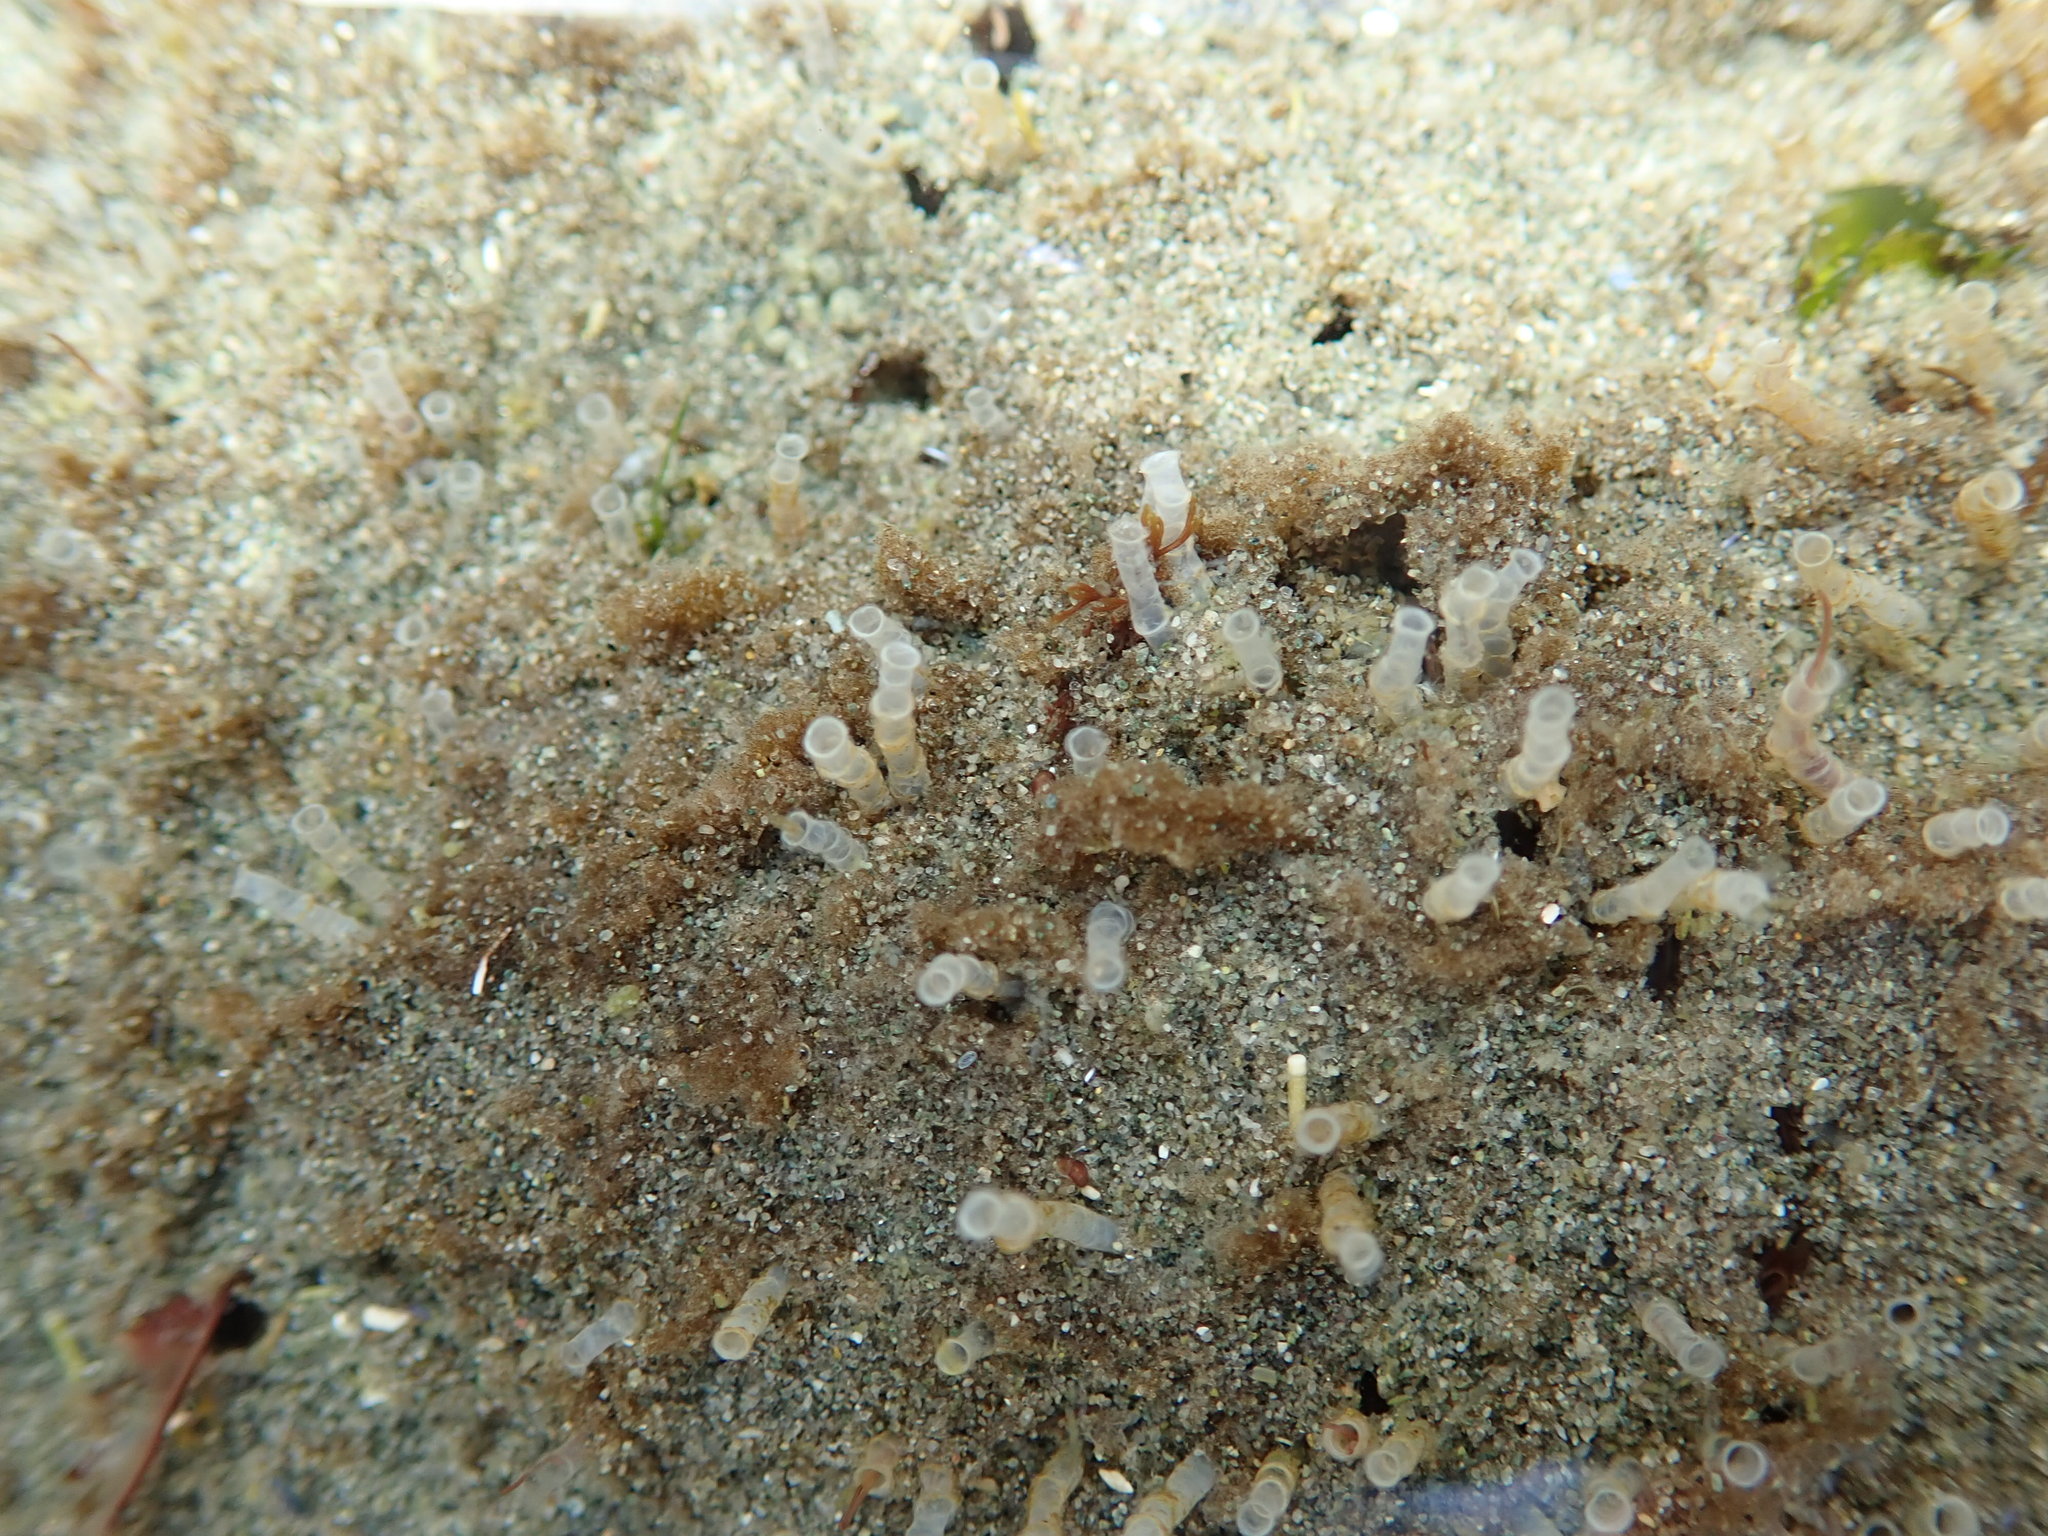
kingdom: Animalia
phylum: Annelida
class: Polychaeta
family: Chaetopteridae
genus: Spiochaetopterus
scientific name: Spiochaetopterus costarum
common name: Glassy tubeworm
